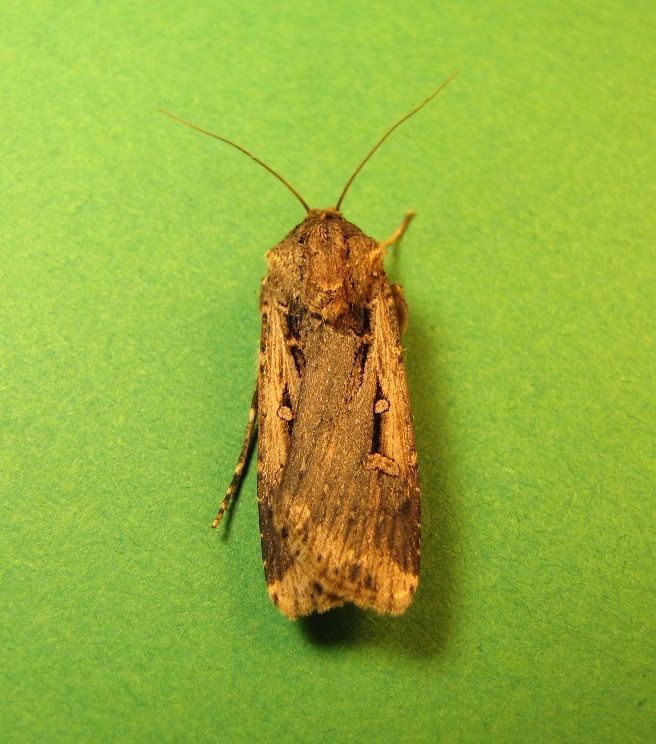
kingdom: Animalia
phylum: Arthropoda
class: Insecta
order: Lepidoptera
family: Noctuidae
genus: Feltia
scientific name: Feltia subterranea
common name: Granulate cutworm
